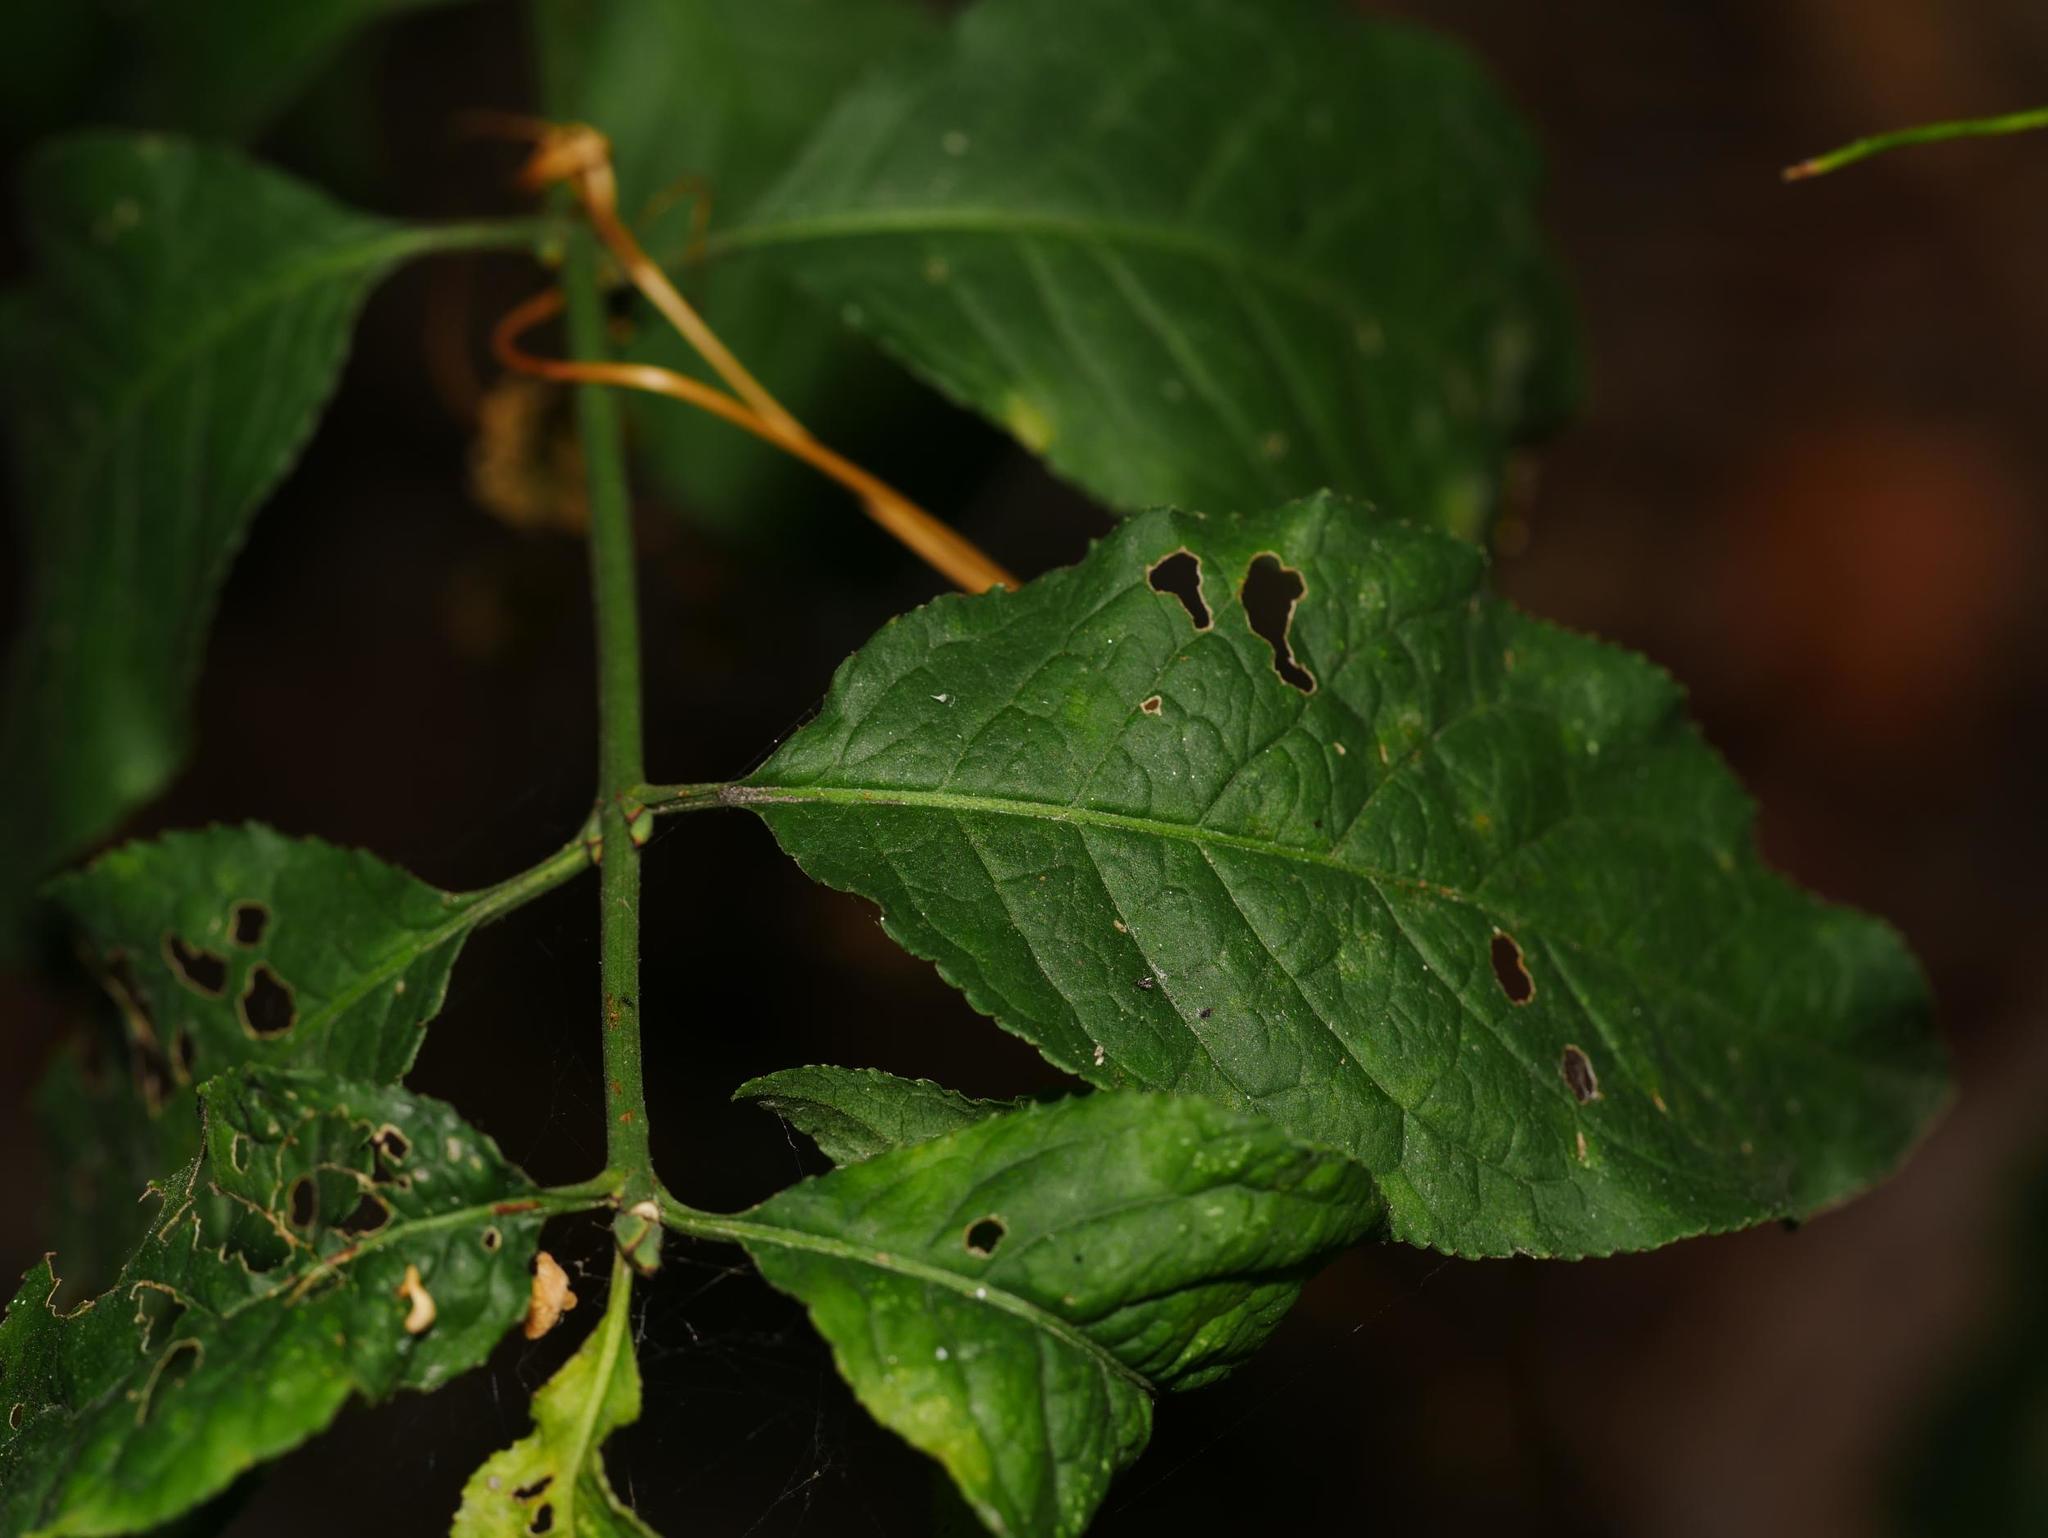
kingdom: Plantae
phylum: Tracheophyta
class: Magnoliopsida
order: Celastrales
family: Celastraceae
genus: Euonymus
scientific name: Euonymus europaeus
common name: Spindle
